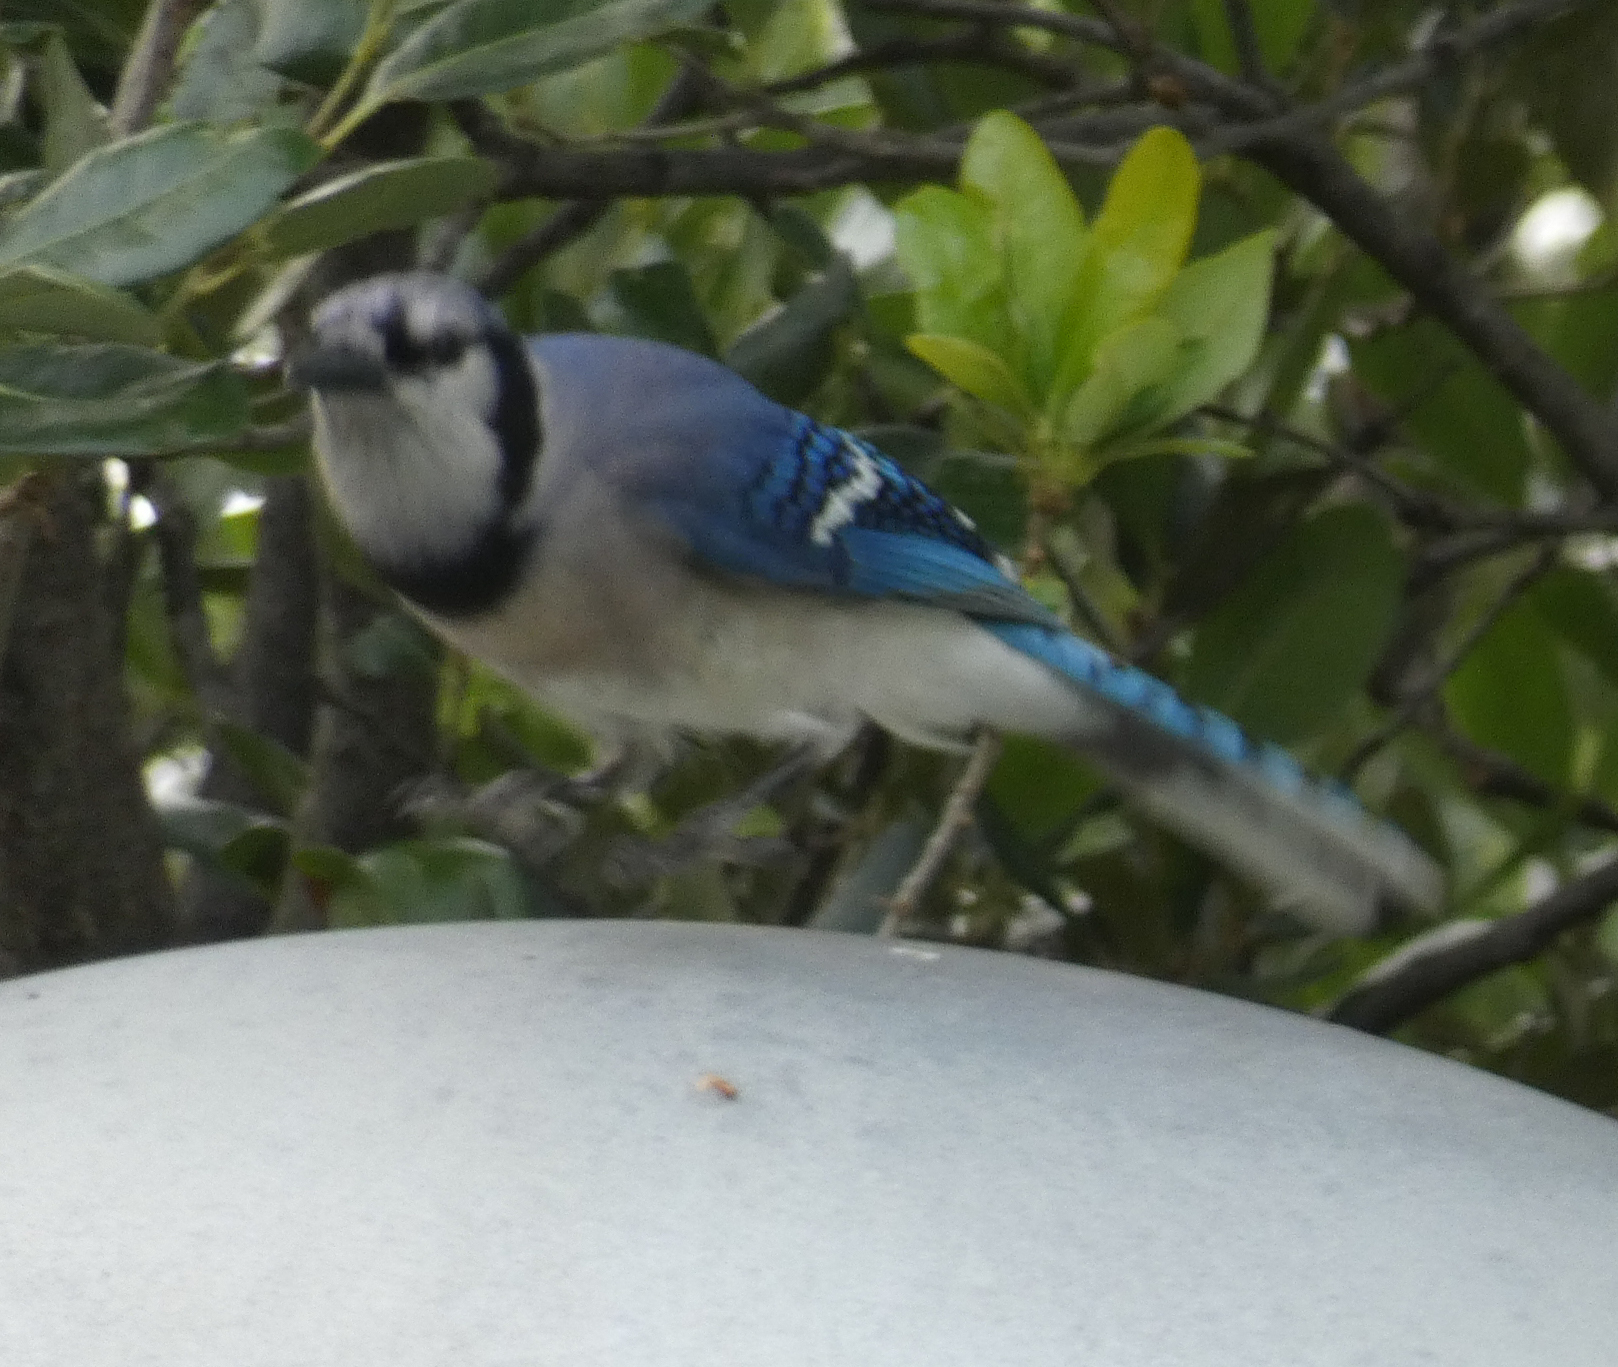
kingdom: Animalia
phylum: Chordata
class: Aves
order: Passeriformes
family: Corvidae
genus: Cyanocitta
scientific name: Cyanocitta cristata
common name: Blue jay
